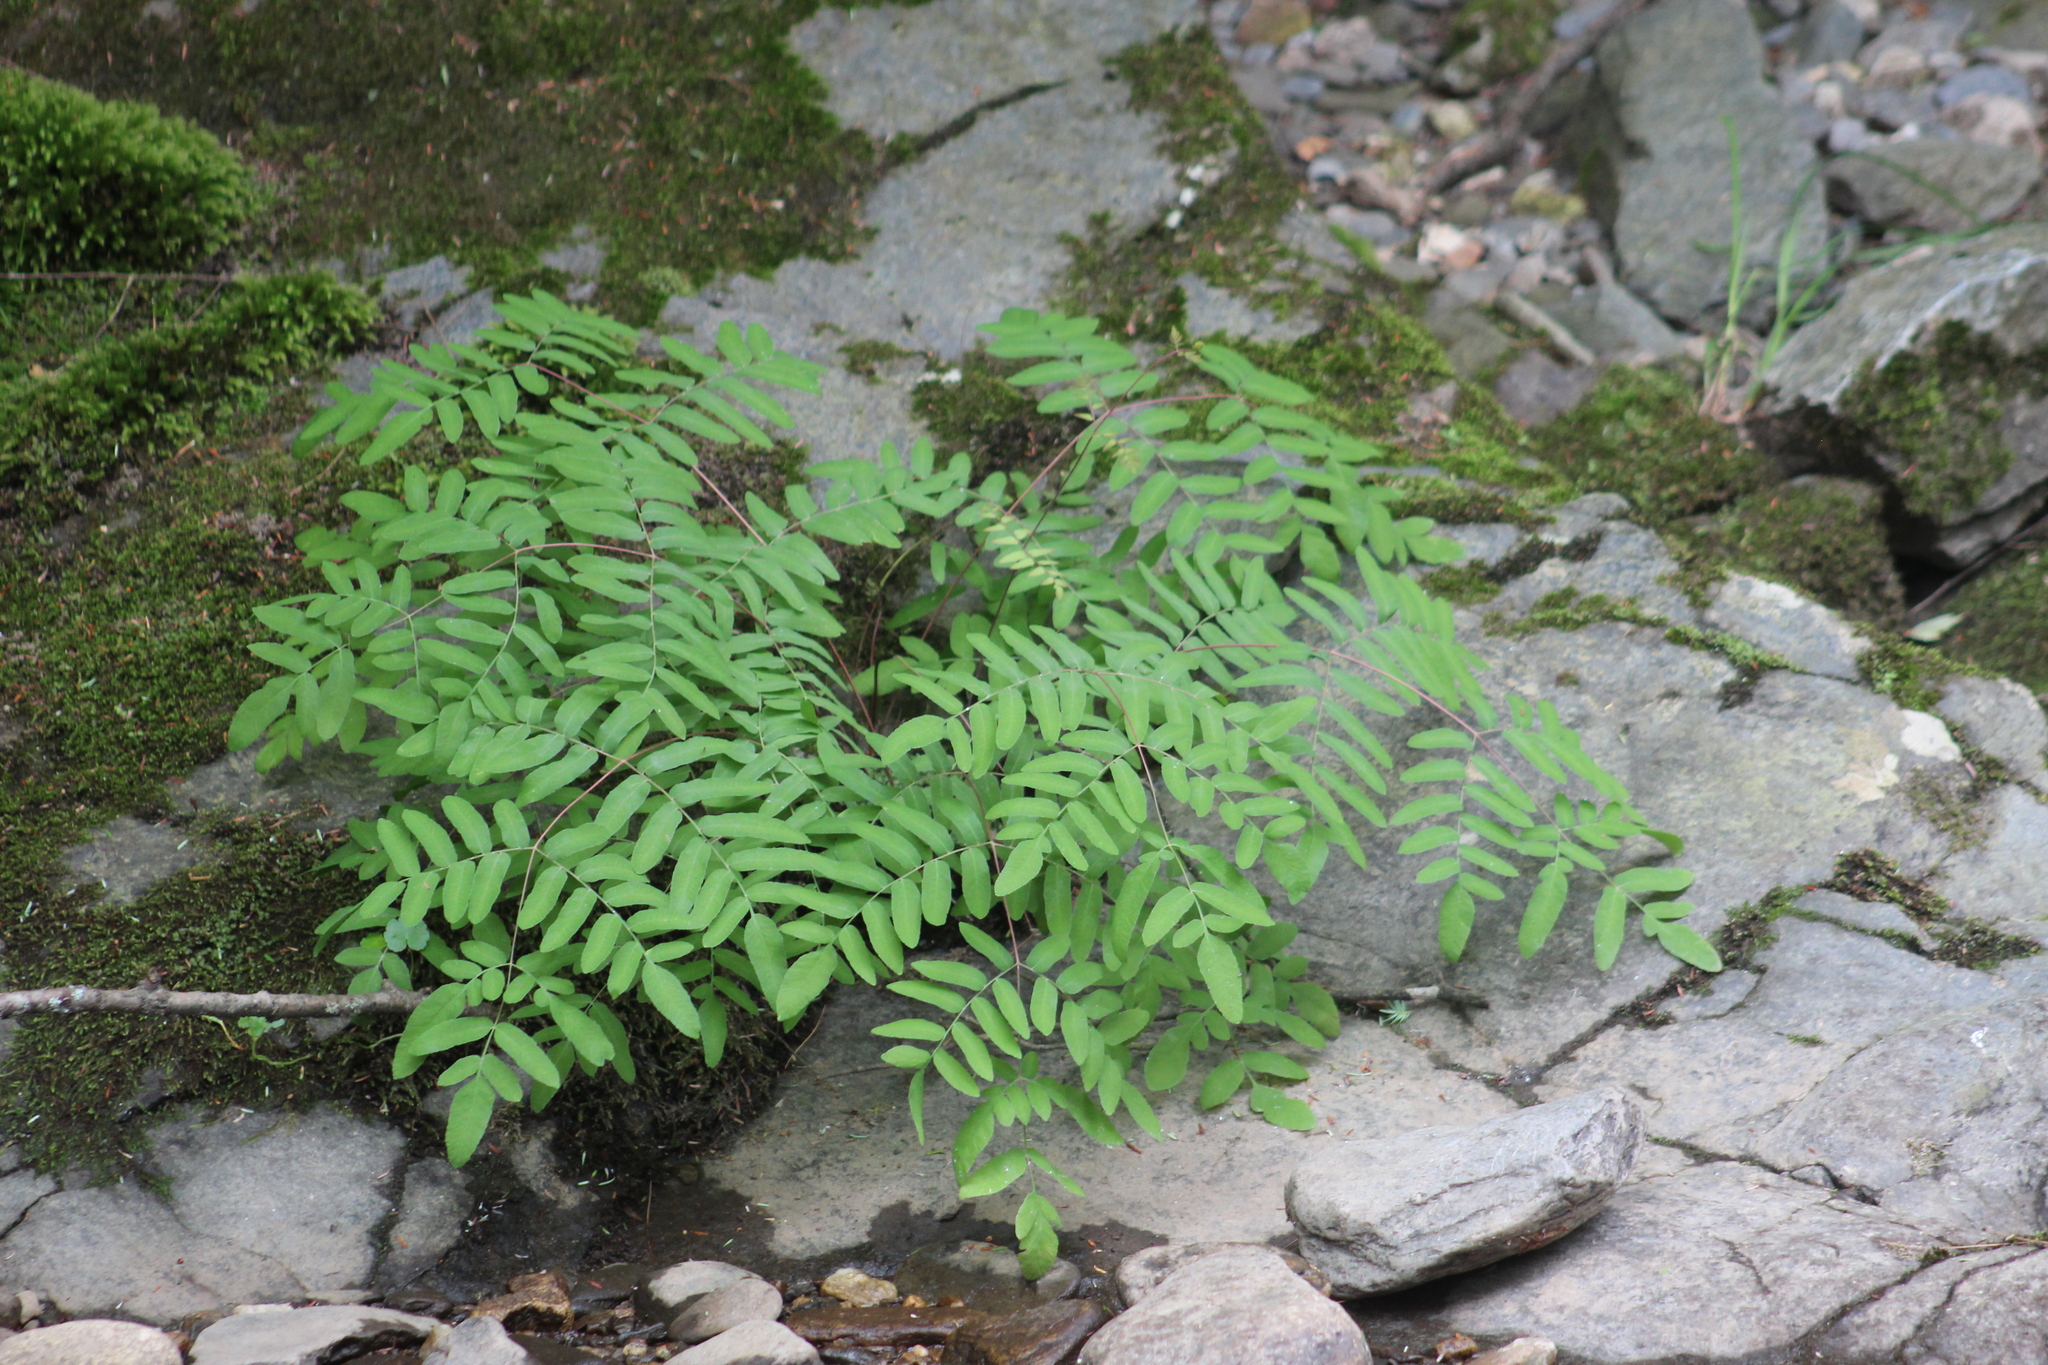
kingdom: Plantae
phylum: Tracheophyta
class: Polypodiopsida
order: Osmundales
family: Osmundaceae
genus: Osmunda
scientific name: Osmunda spectabilis
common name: American royal fern
